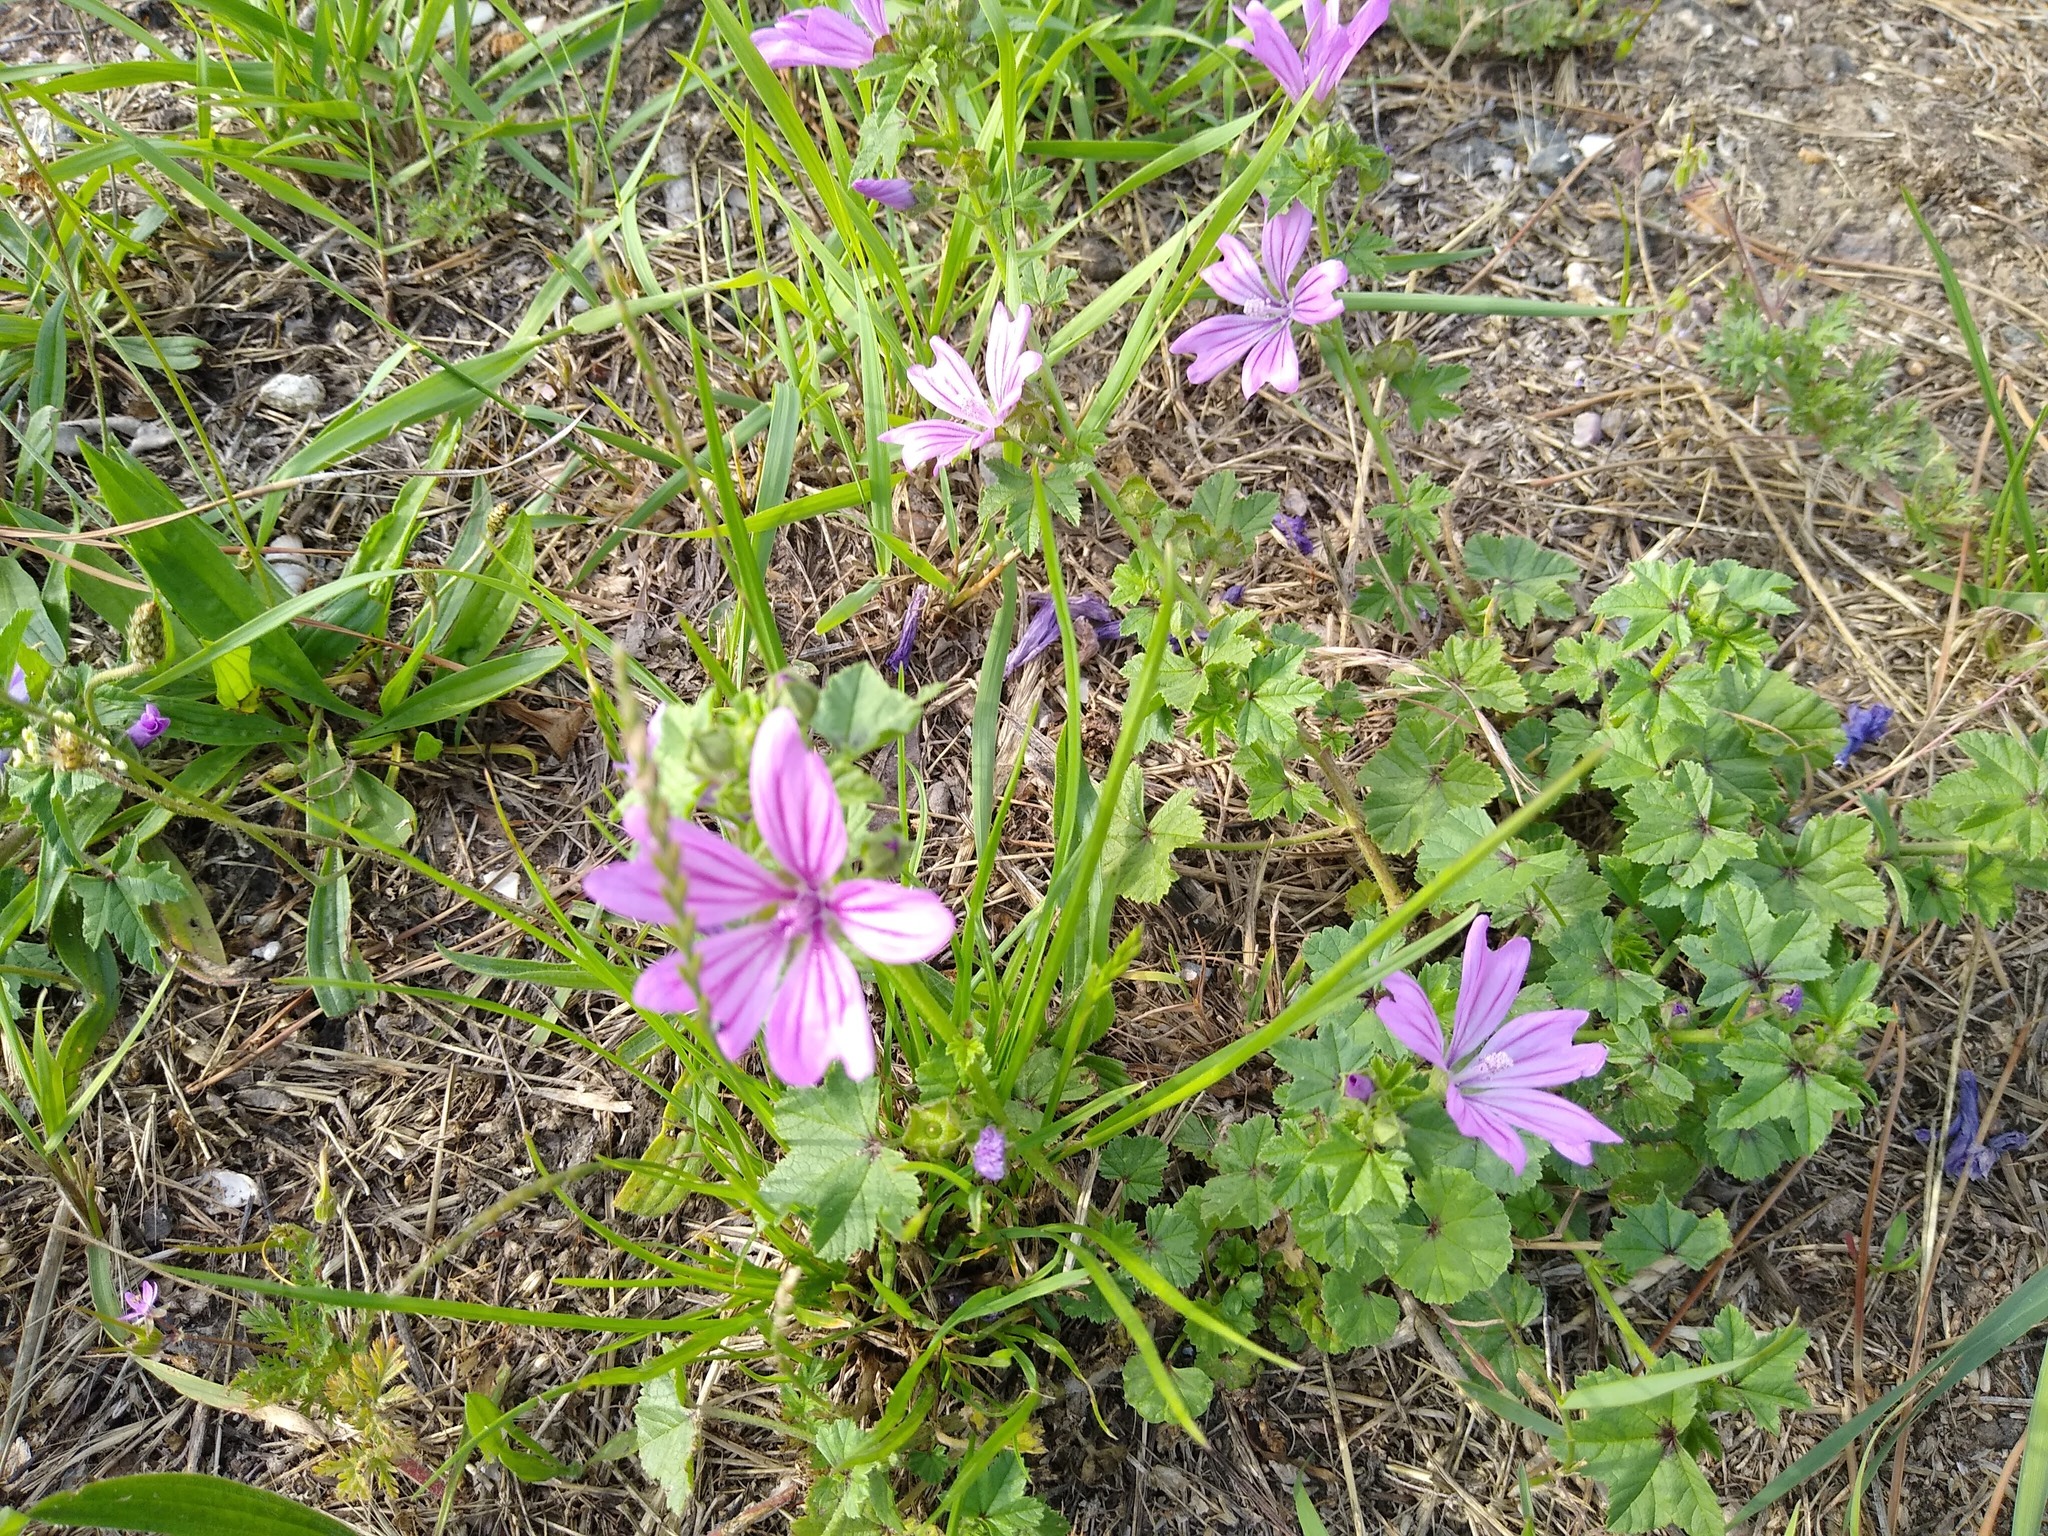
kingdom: Plantae
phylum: Tracheophyta
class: Magnoliopsida
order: Malvales
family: Malvaceae
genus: Malva
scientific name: Malva sylvestris
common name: Common mallow
